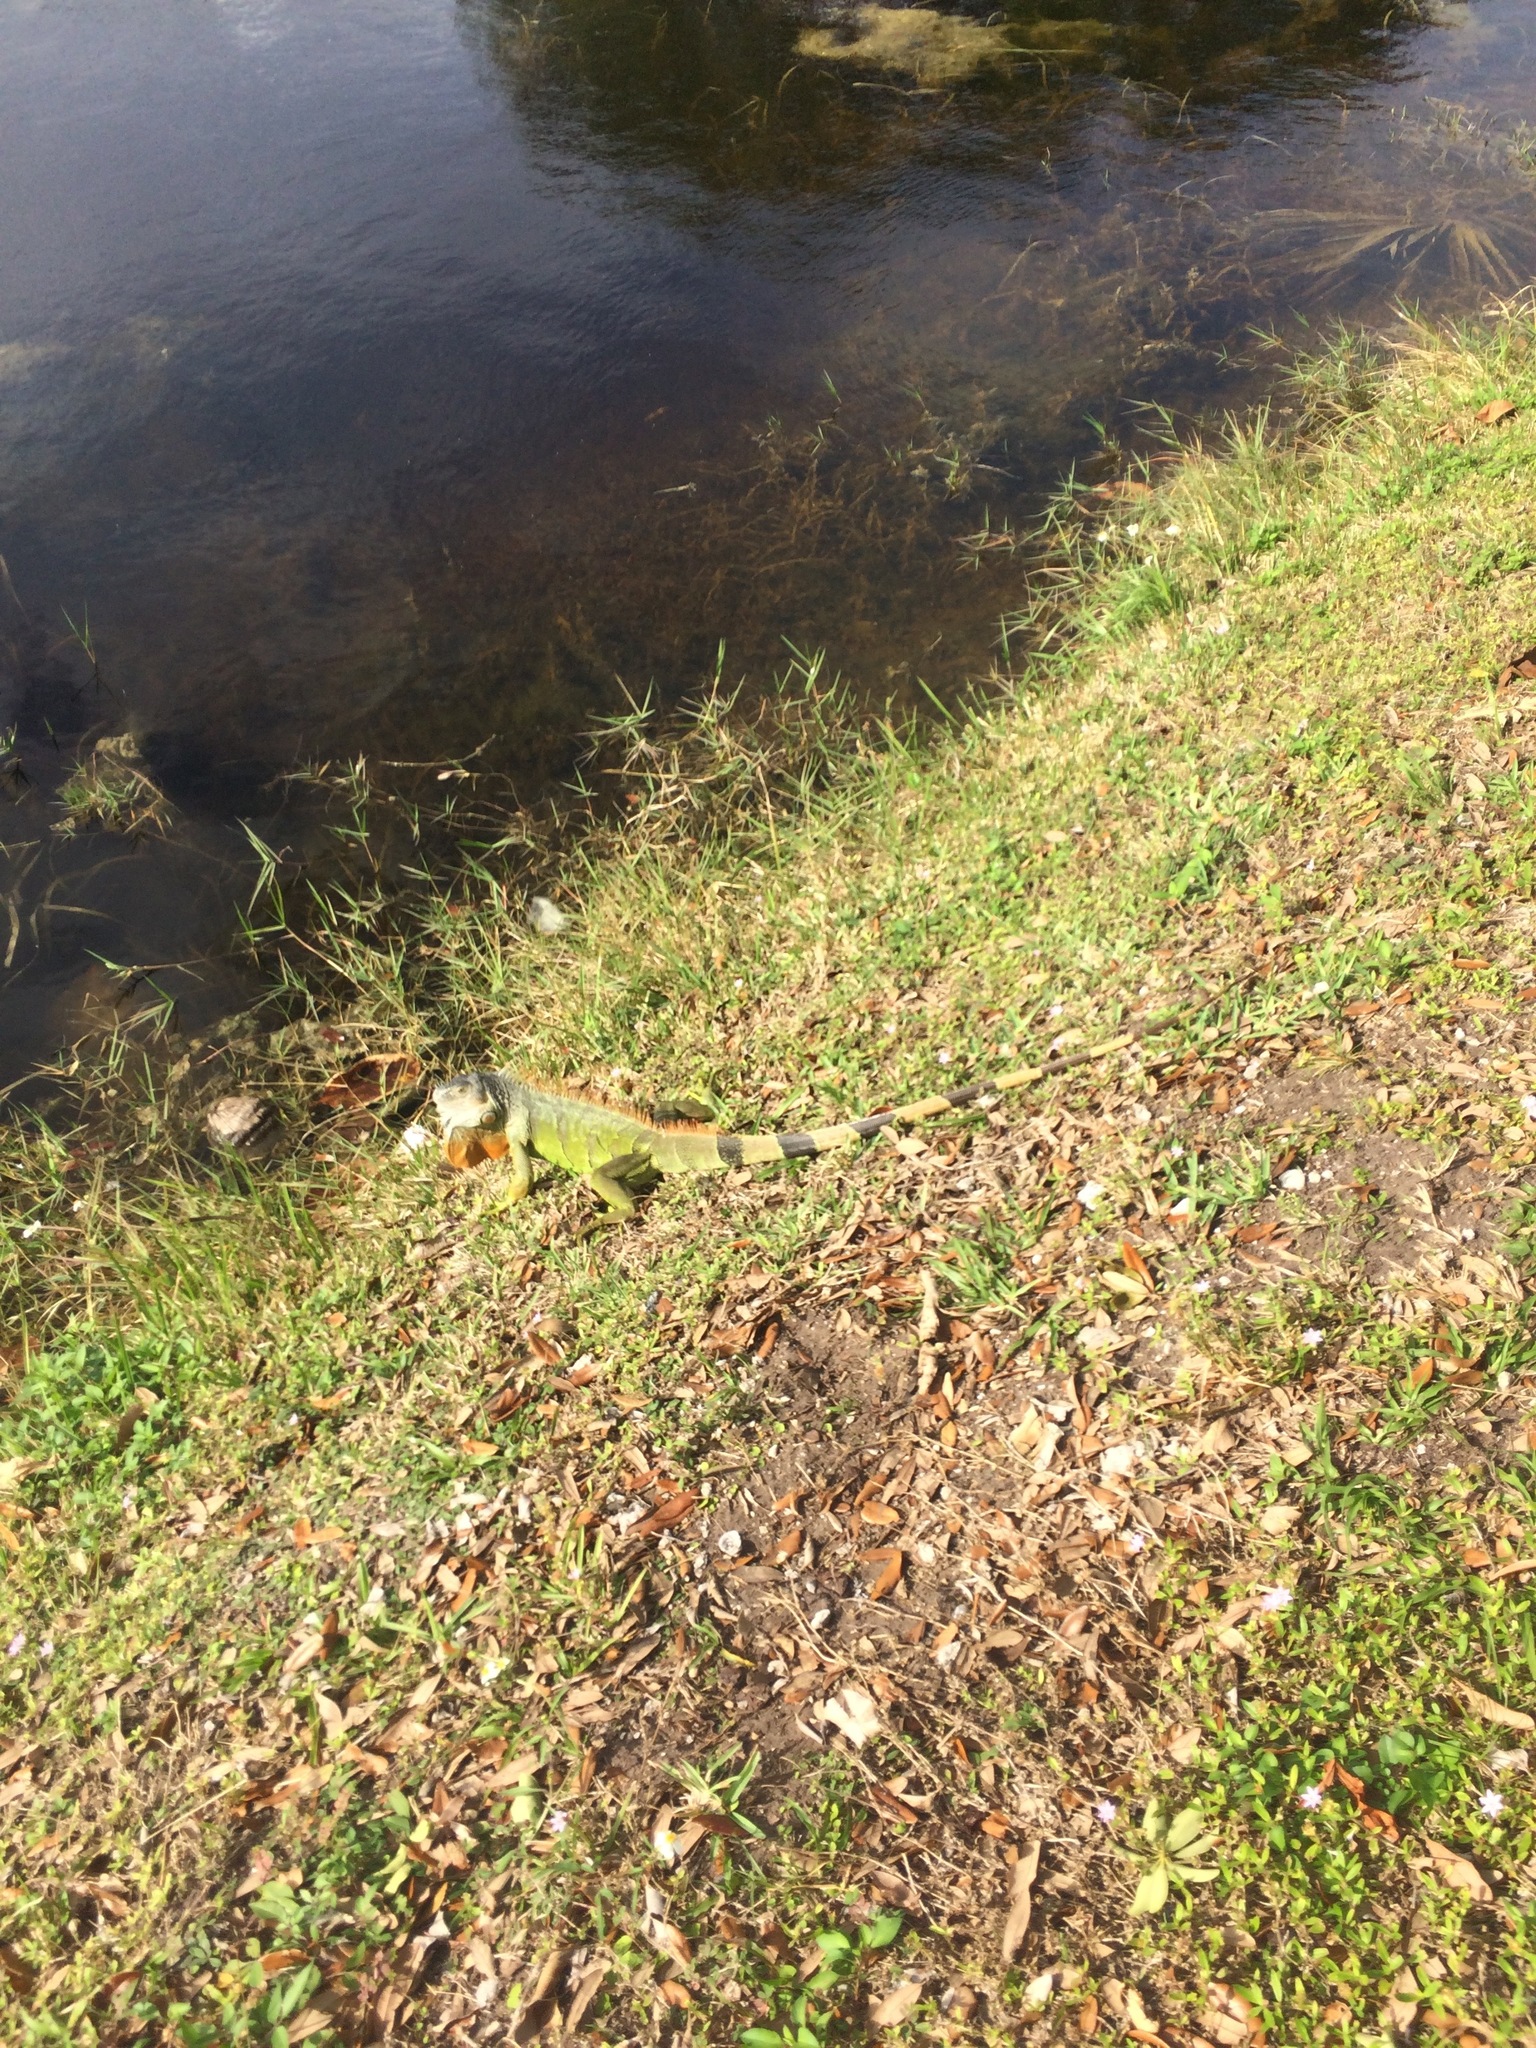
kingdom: Animalia
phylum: Chordata
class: Squamata
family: Iguanidae
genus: Iguana
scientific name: Iguana iguana
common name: Green iguana
